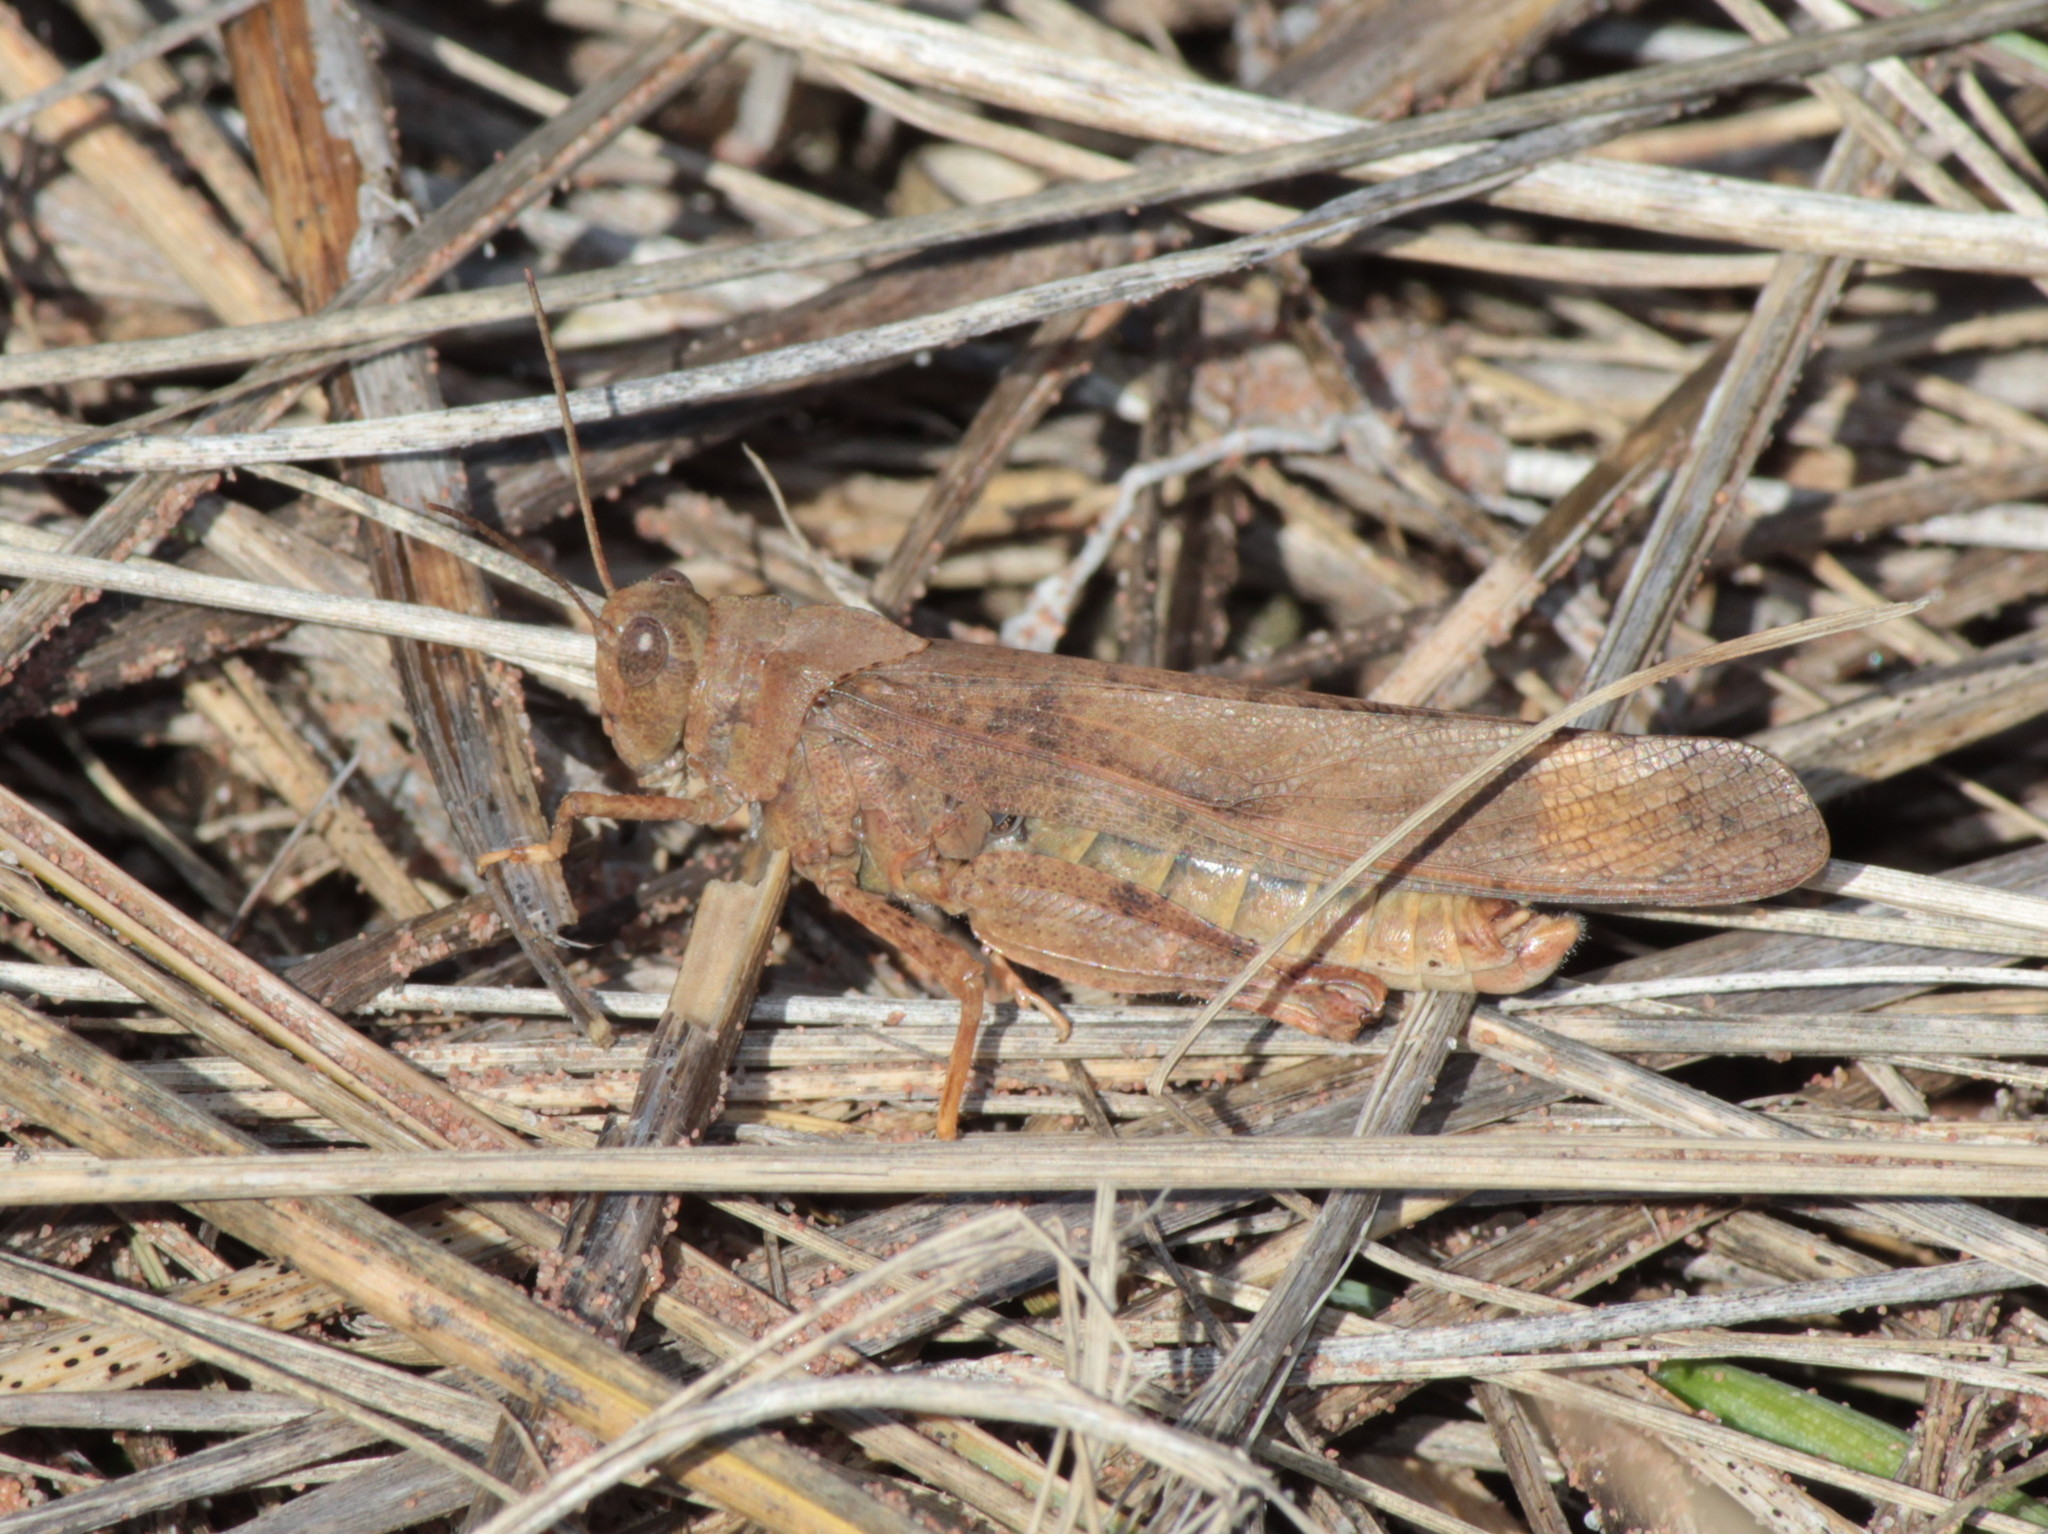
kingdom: Animalia
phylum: Arthropoda
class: Insecta
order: Orthoptera
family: Acrididae
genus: Dissosteira
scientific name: Dissosteira carolina
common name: Carolina grasshopper
